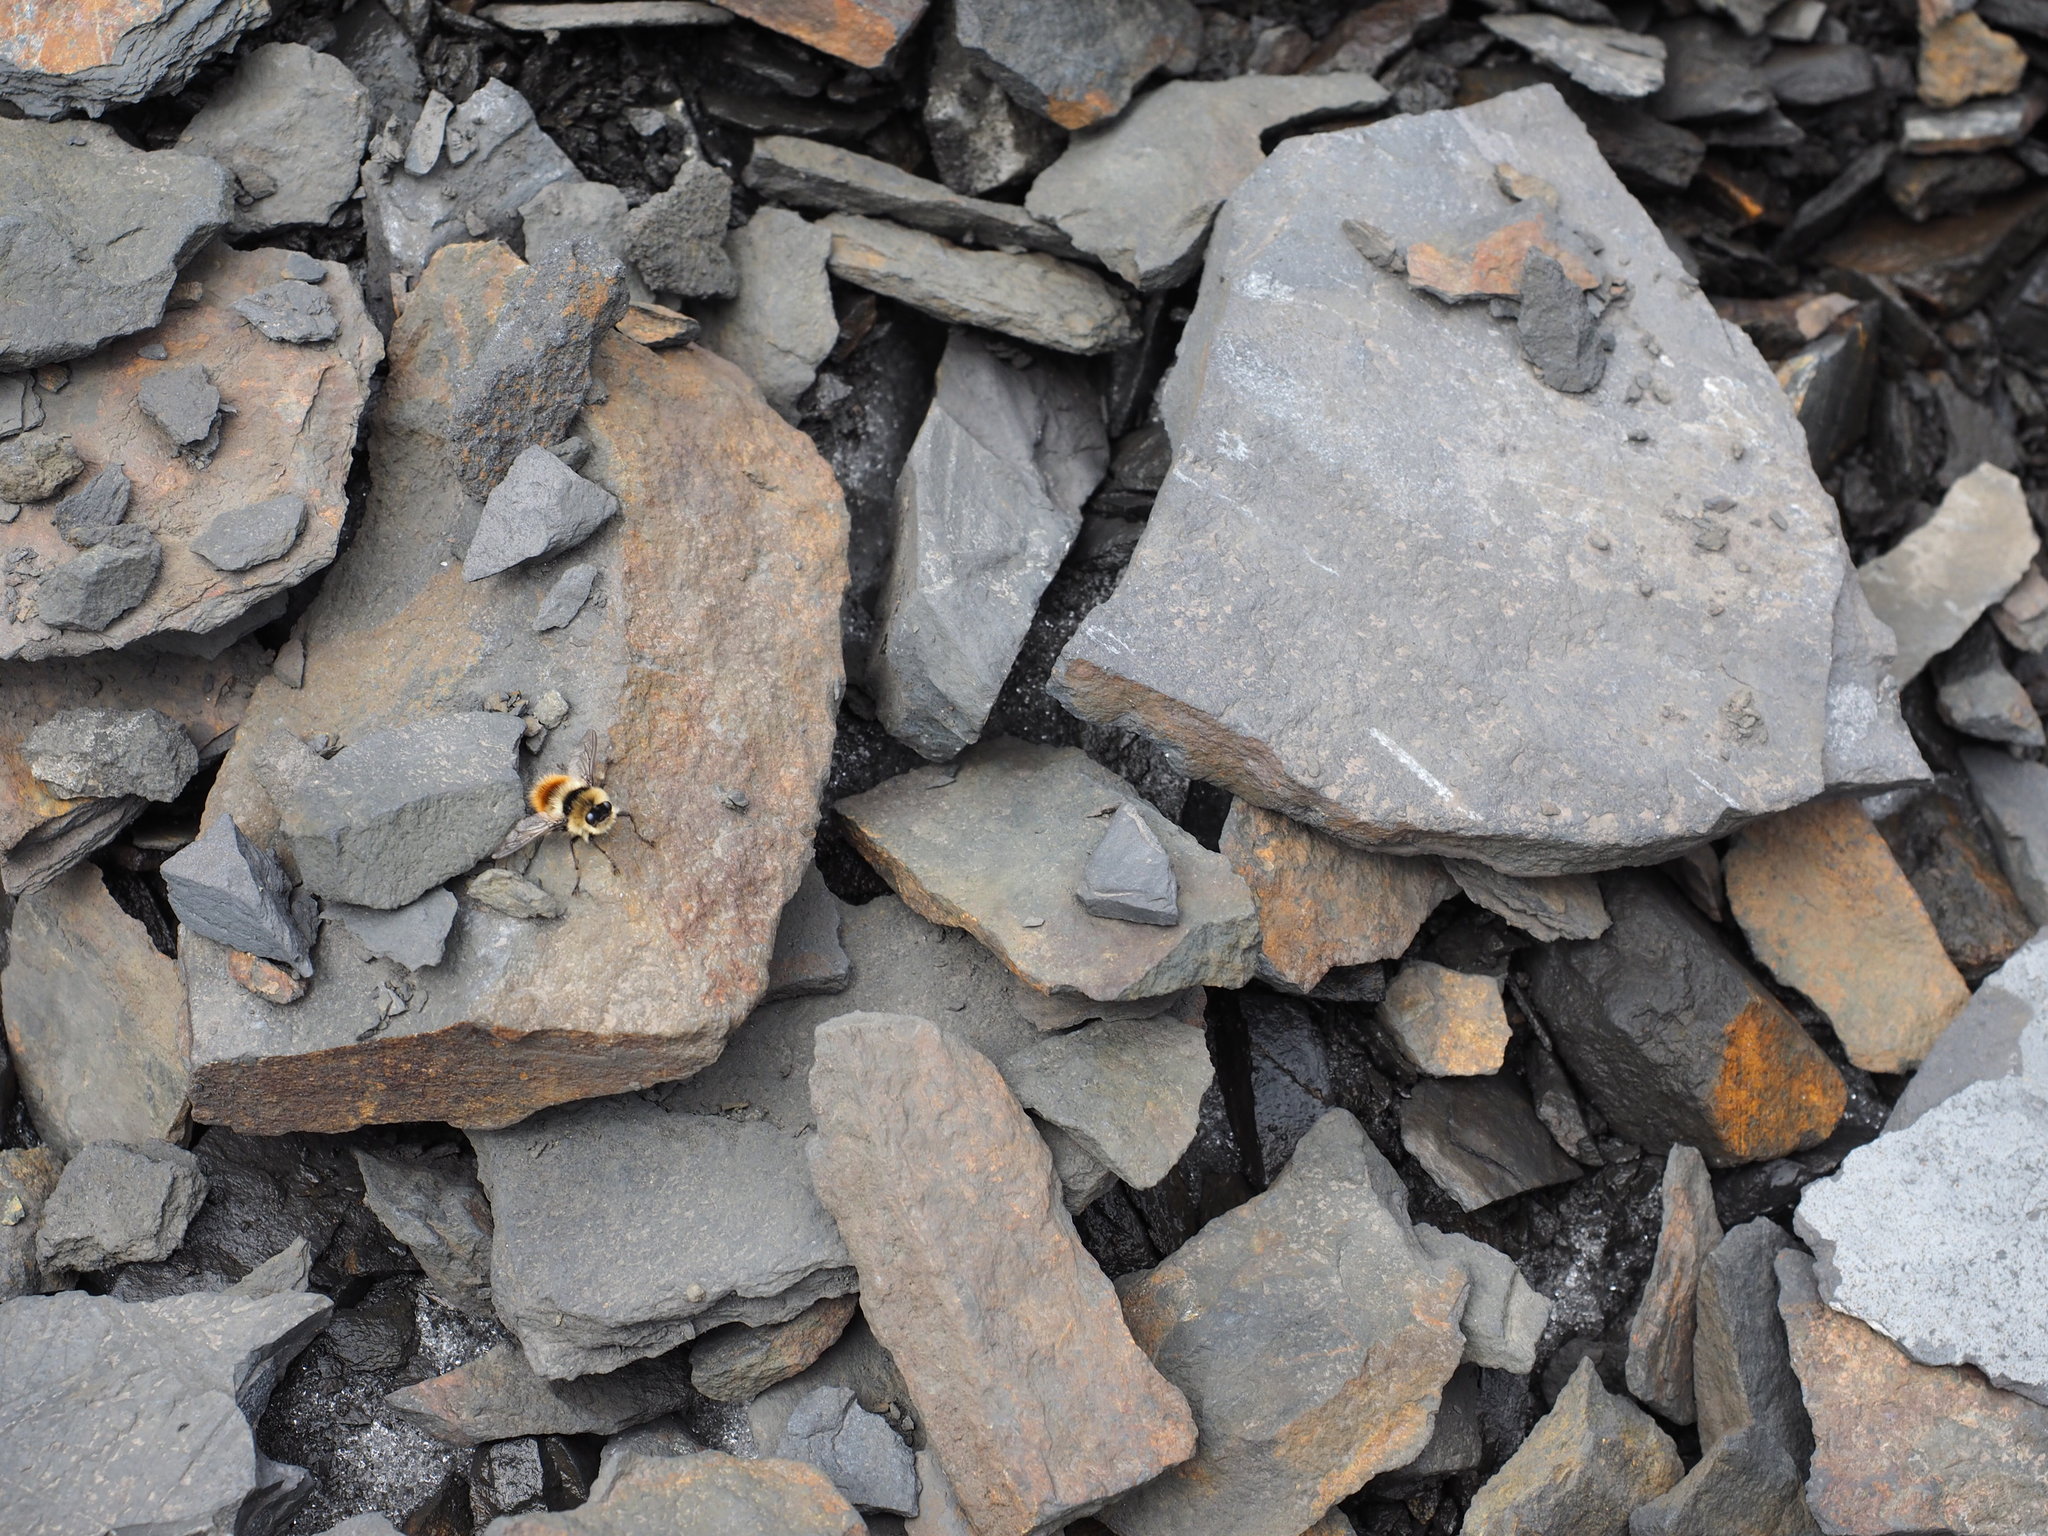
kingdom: Animalia
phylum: Arthropoda
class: Insecta
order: Diptera
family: Oestridae
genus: Hypoderma
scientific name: Hypoderma tarandi
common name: Botfly
